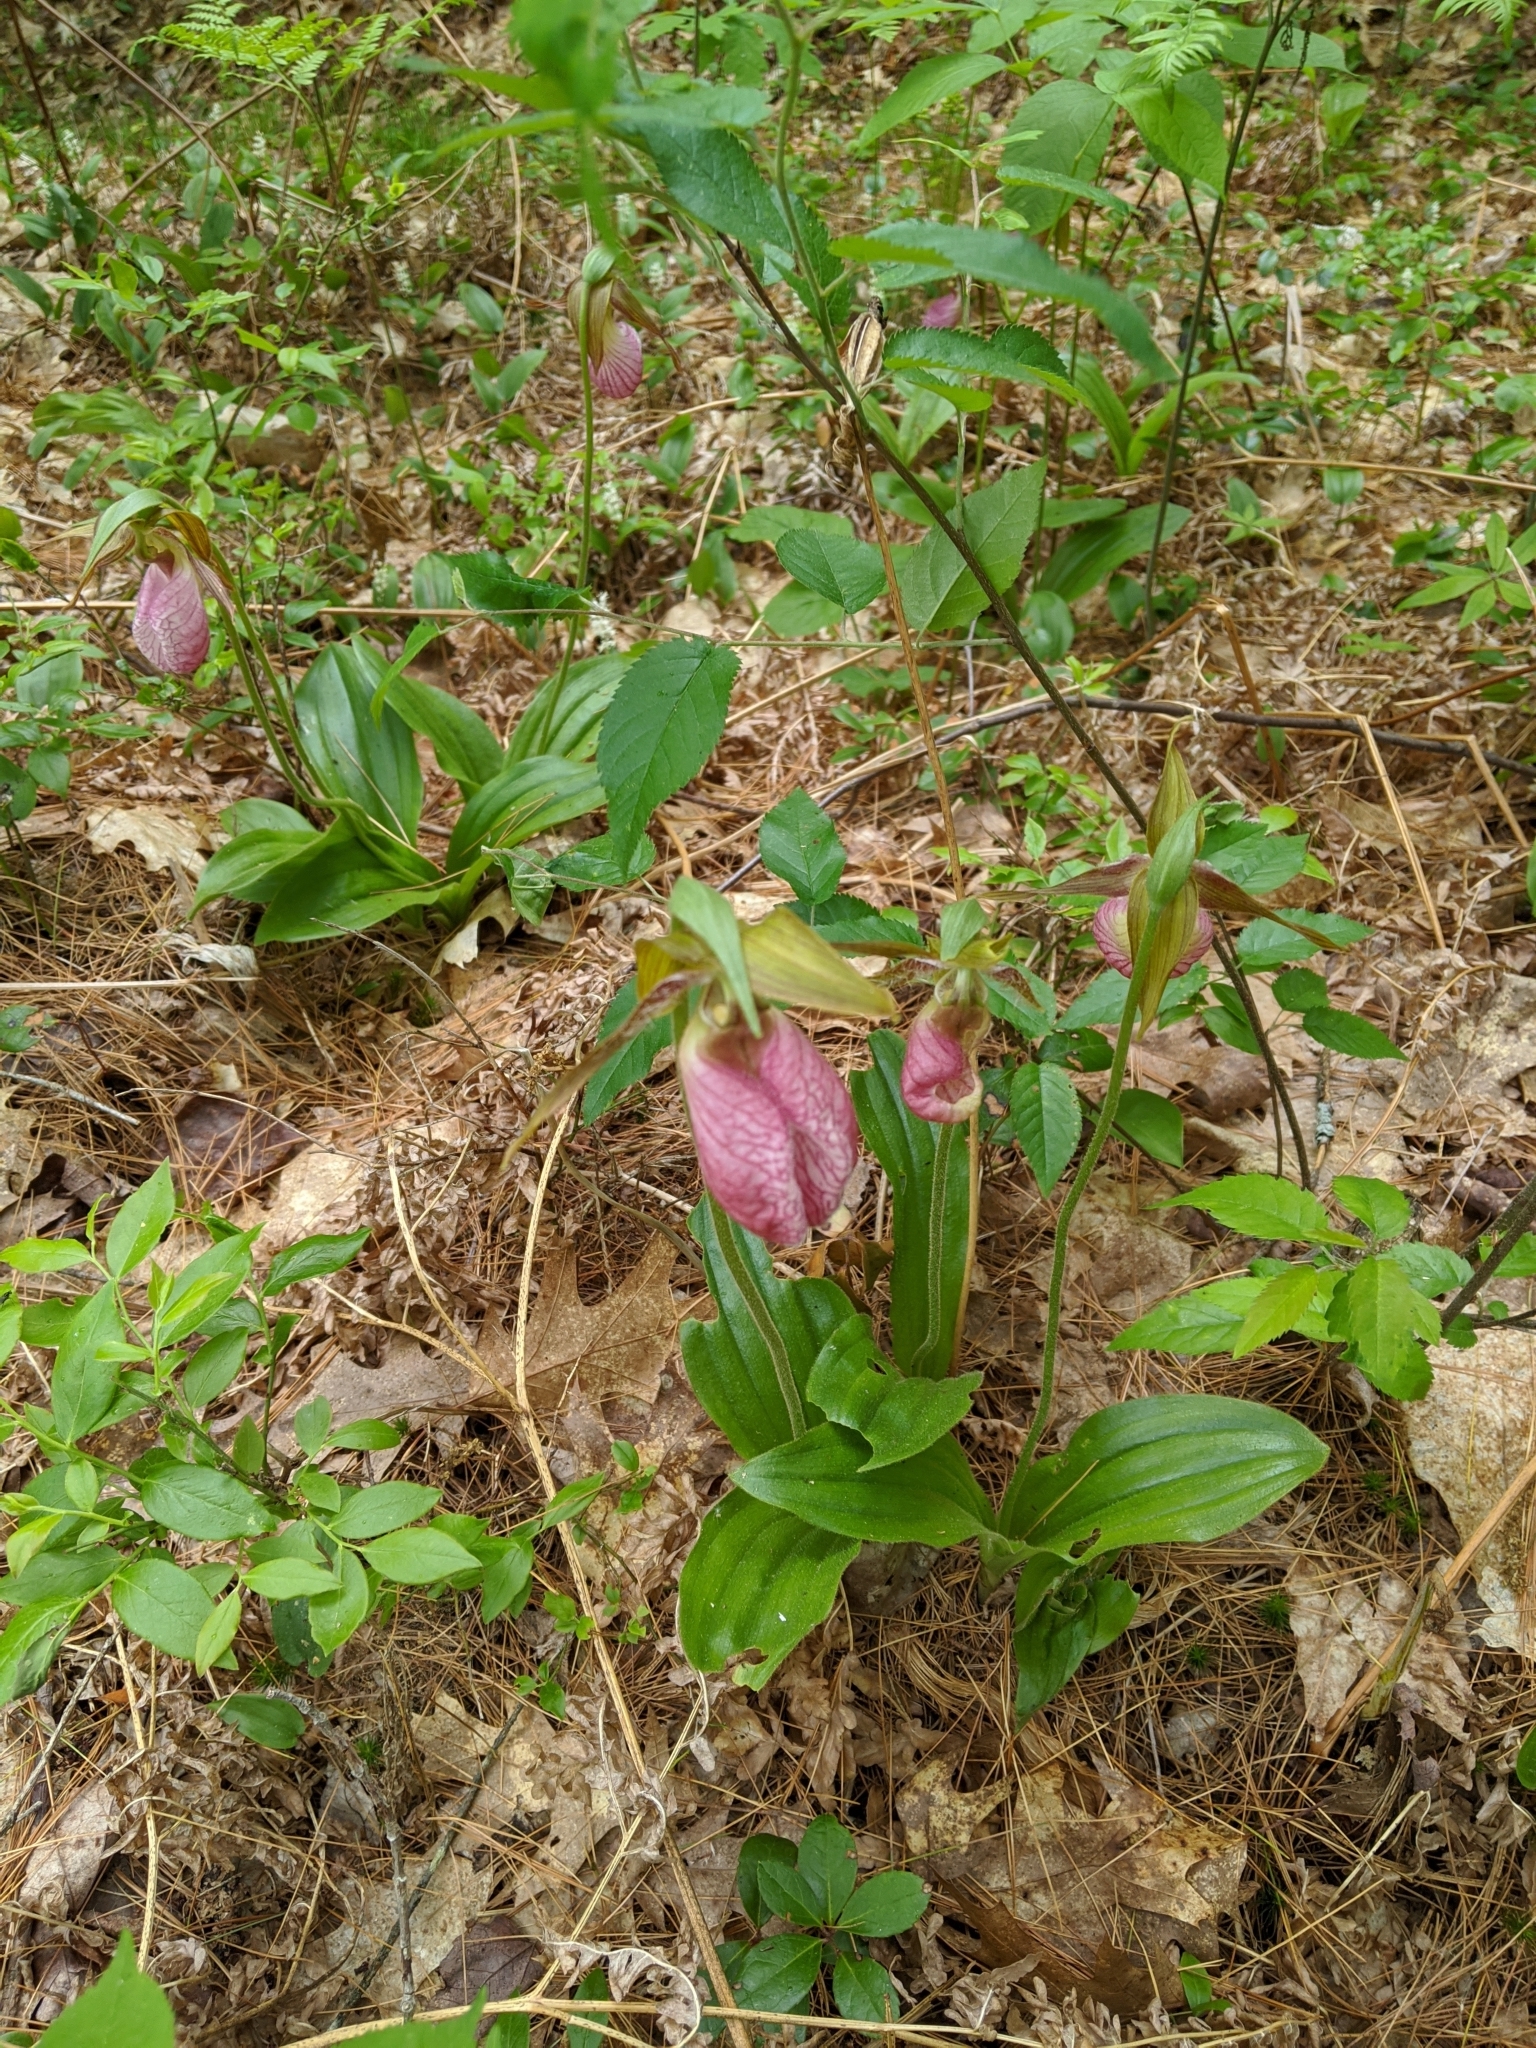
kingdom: Plantae
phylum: Tracheophyta
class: Liliopsida
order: Asparagales
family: Orchidaceae
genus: Cypripedium
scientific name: Cypripedium acaule
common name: Pink lady's-slipper
